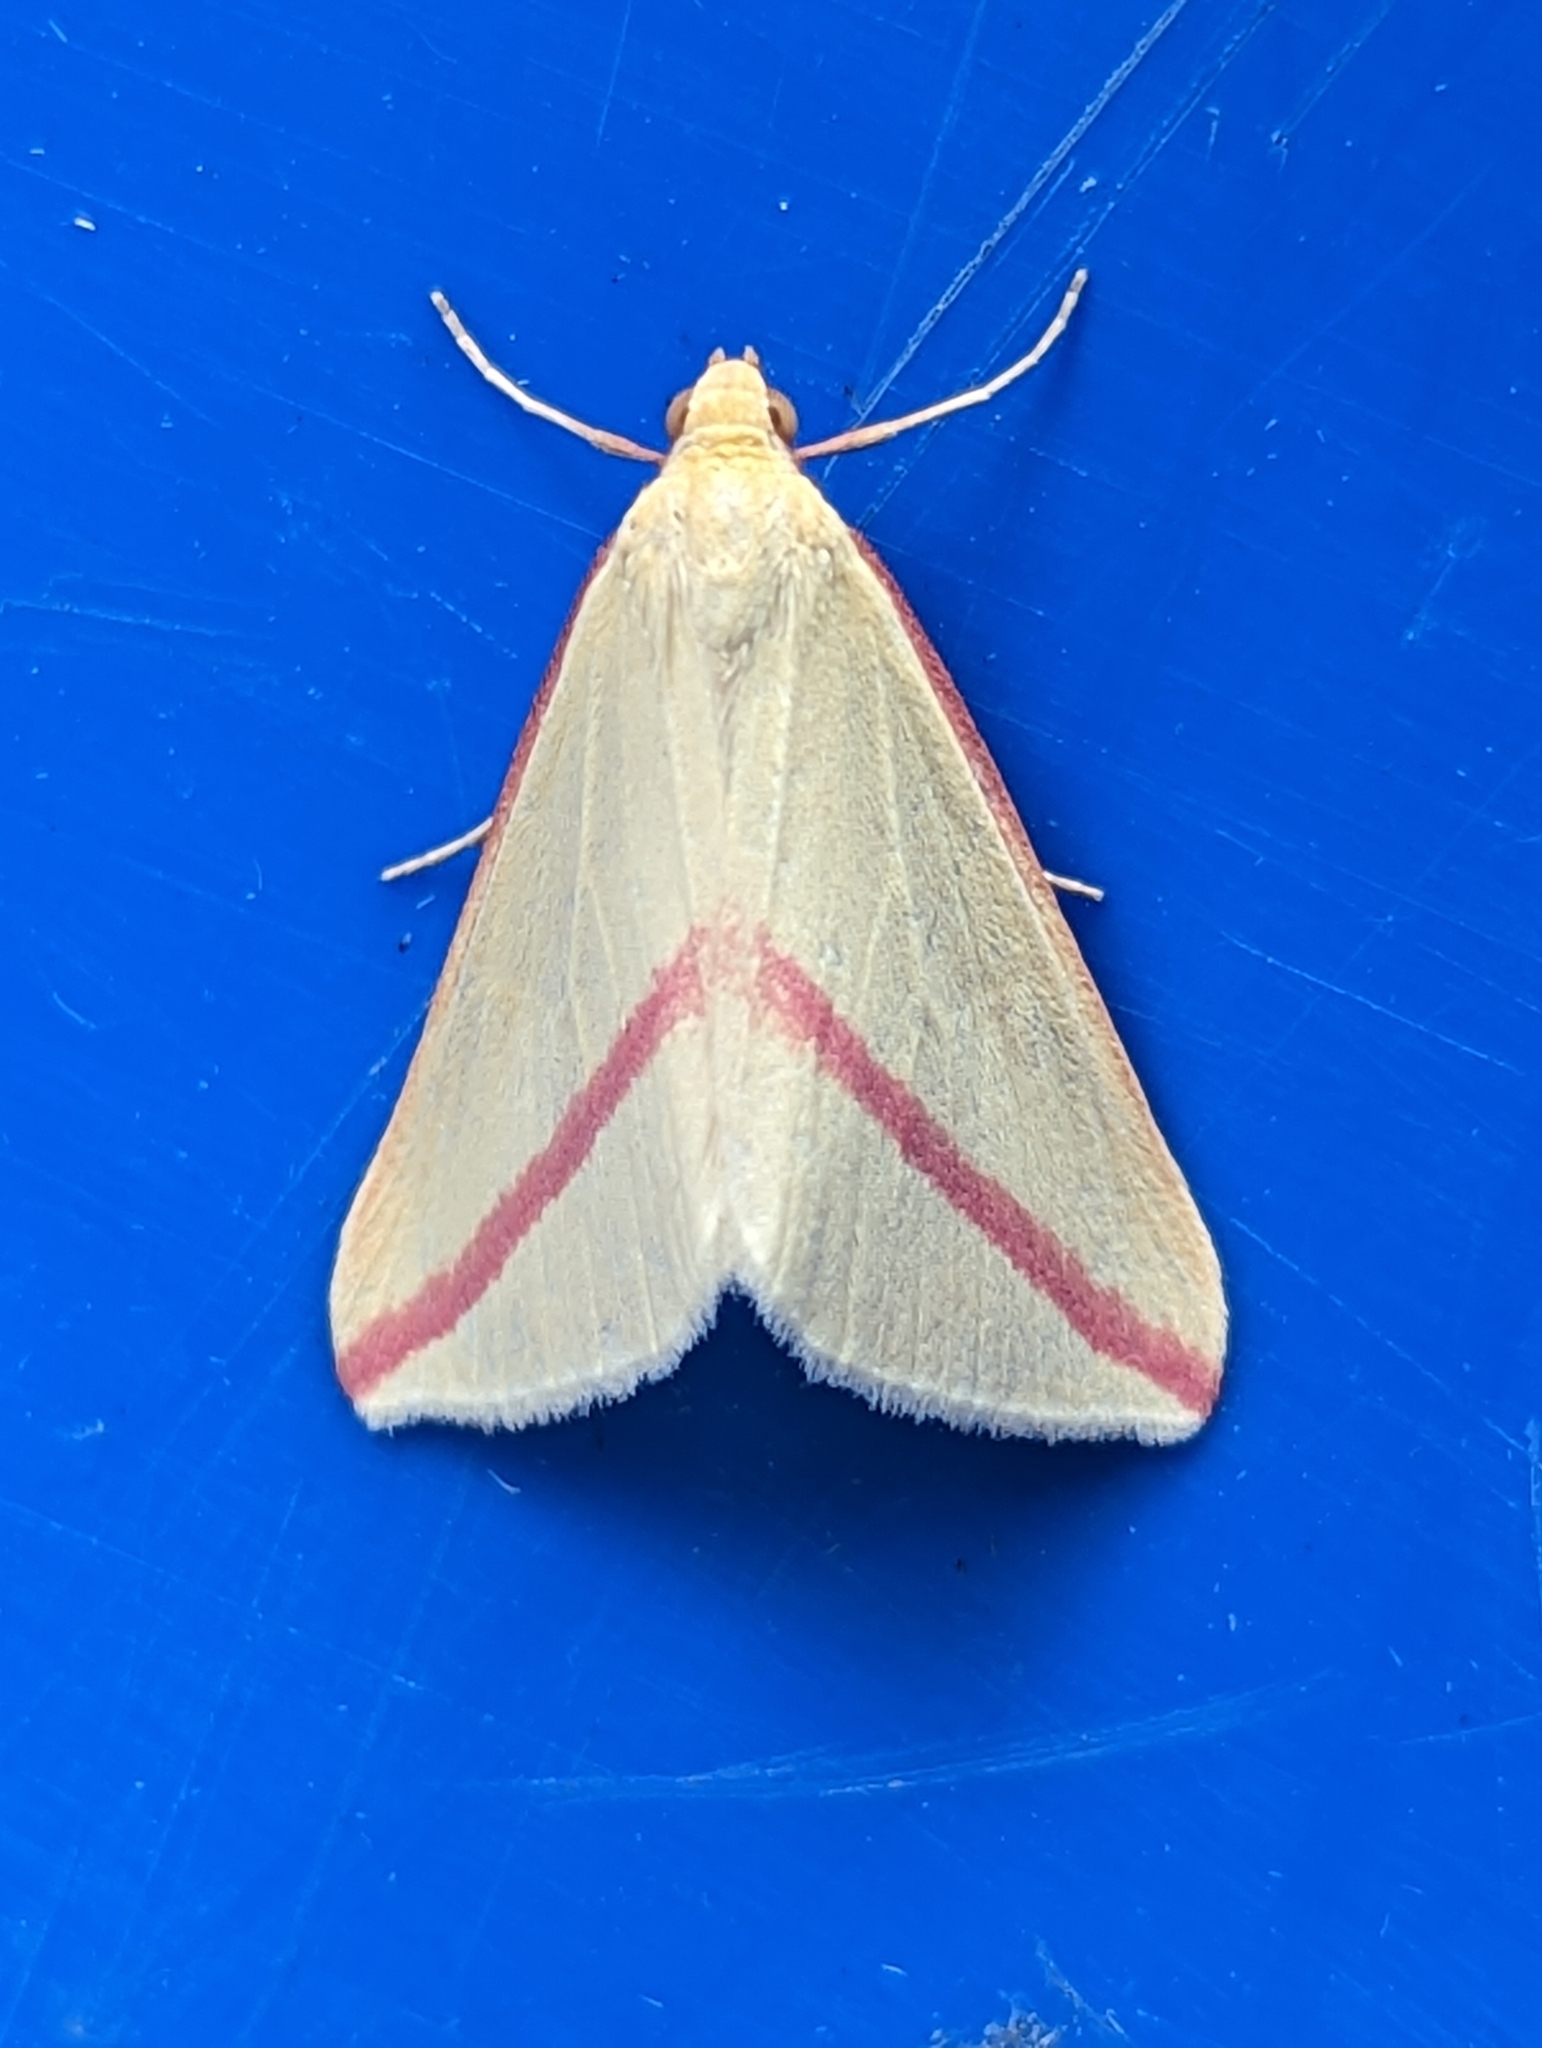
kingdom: Animalia
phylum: Arthropoda
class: Insecta
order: Lepidoptera
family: Geometridae
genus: Rhodometra
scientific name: Rhodometra sacraria
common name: Vestal
